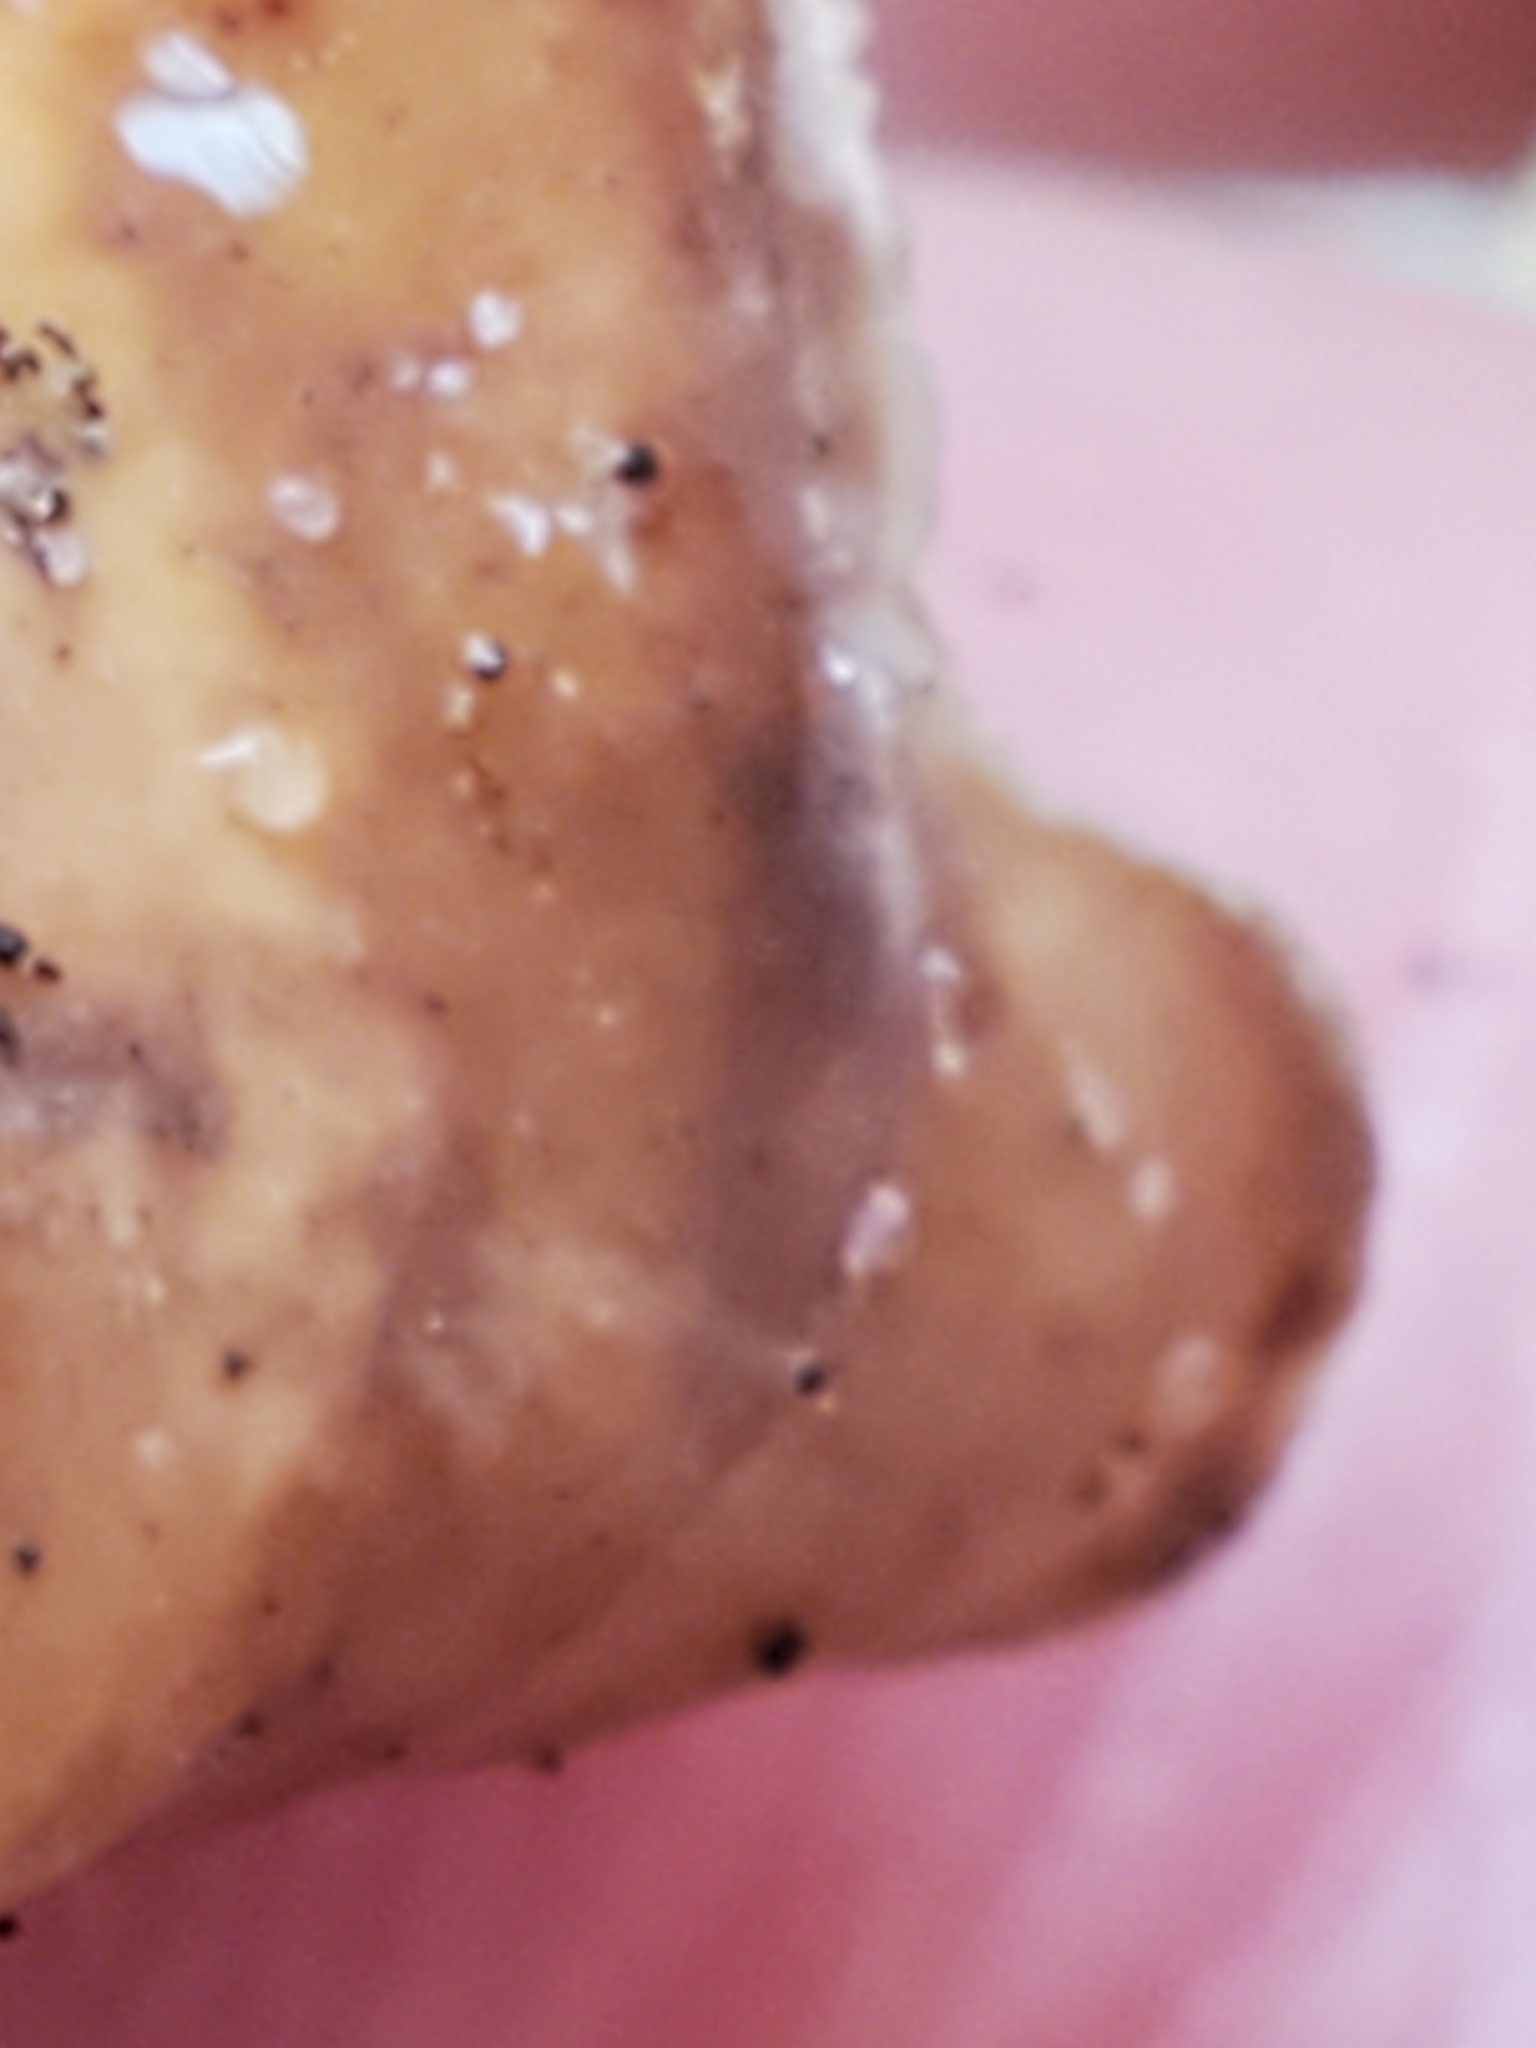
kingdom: Fungi
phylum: Basidiomycota
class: Agaricomycetes
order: Russulales
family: Stereaceae
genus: Stereum
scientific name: Stereum lobatum
